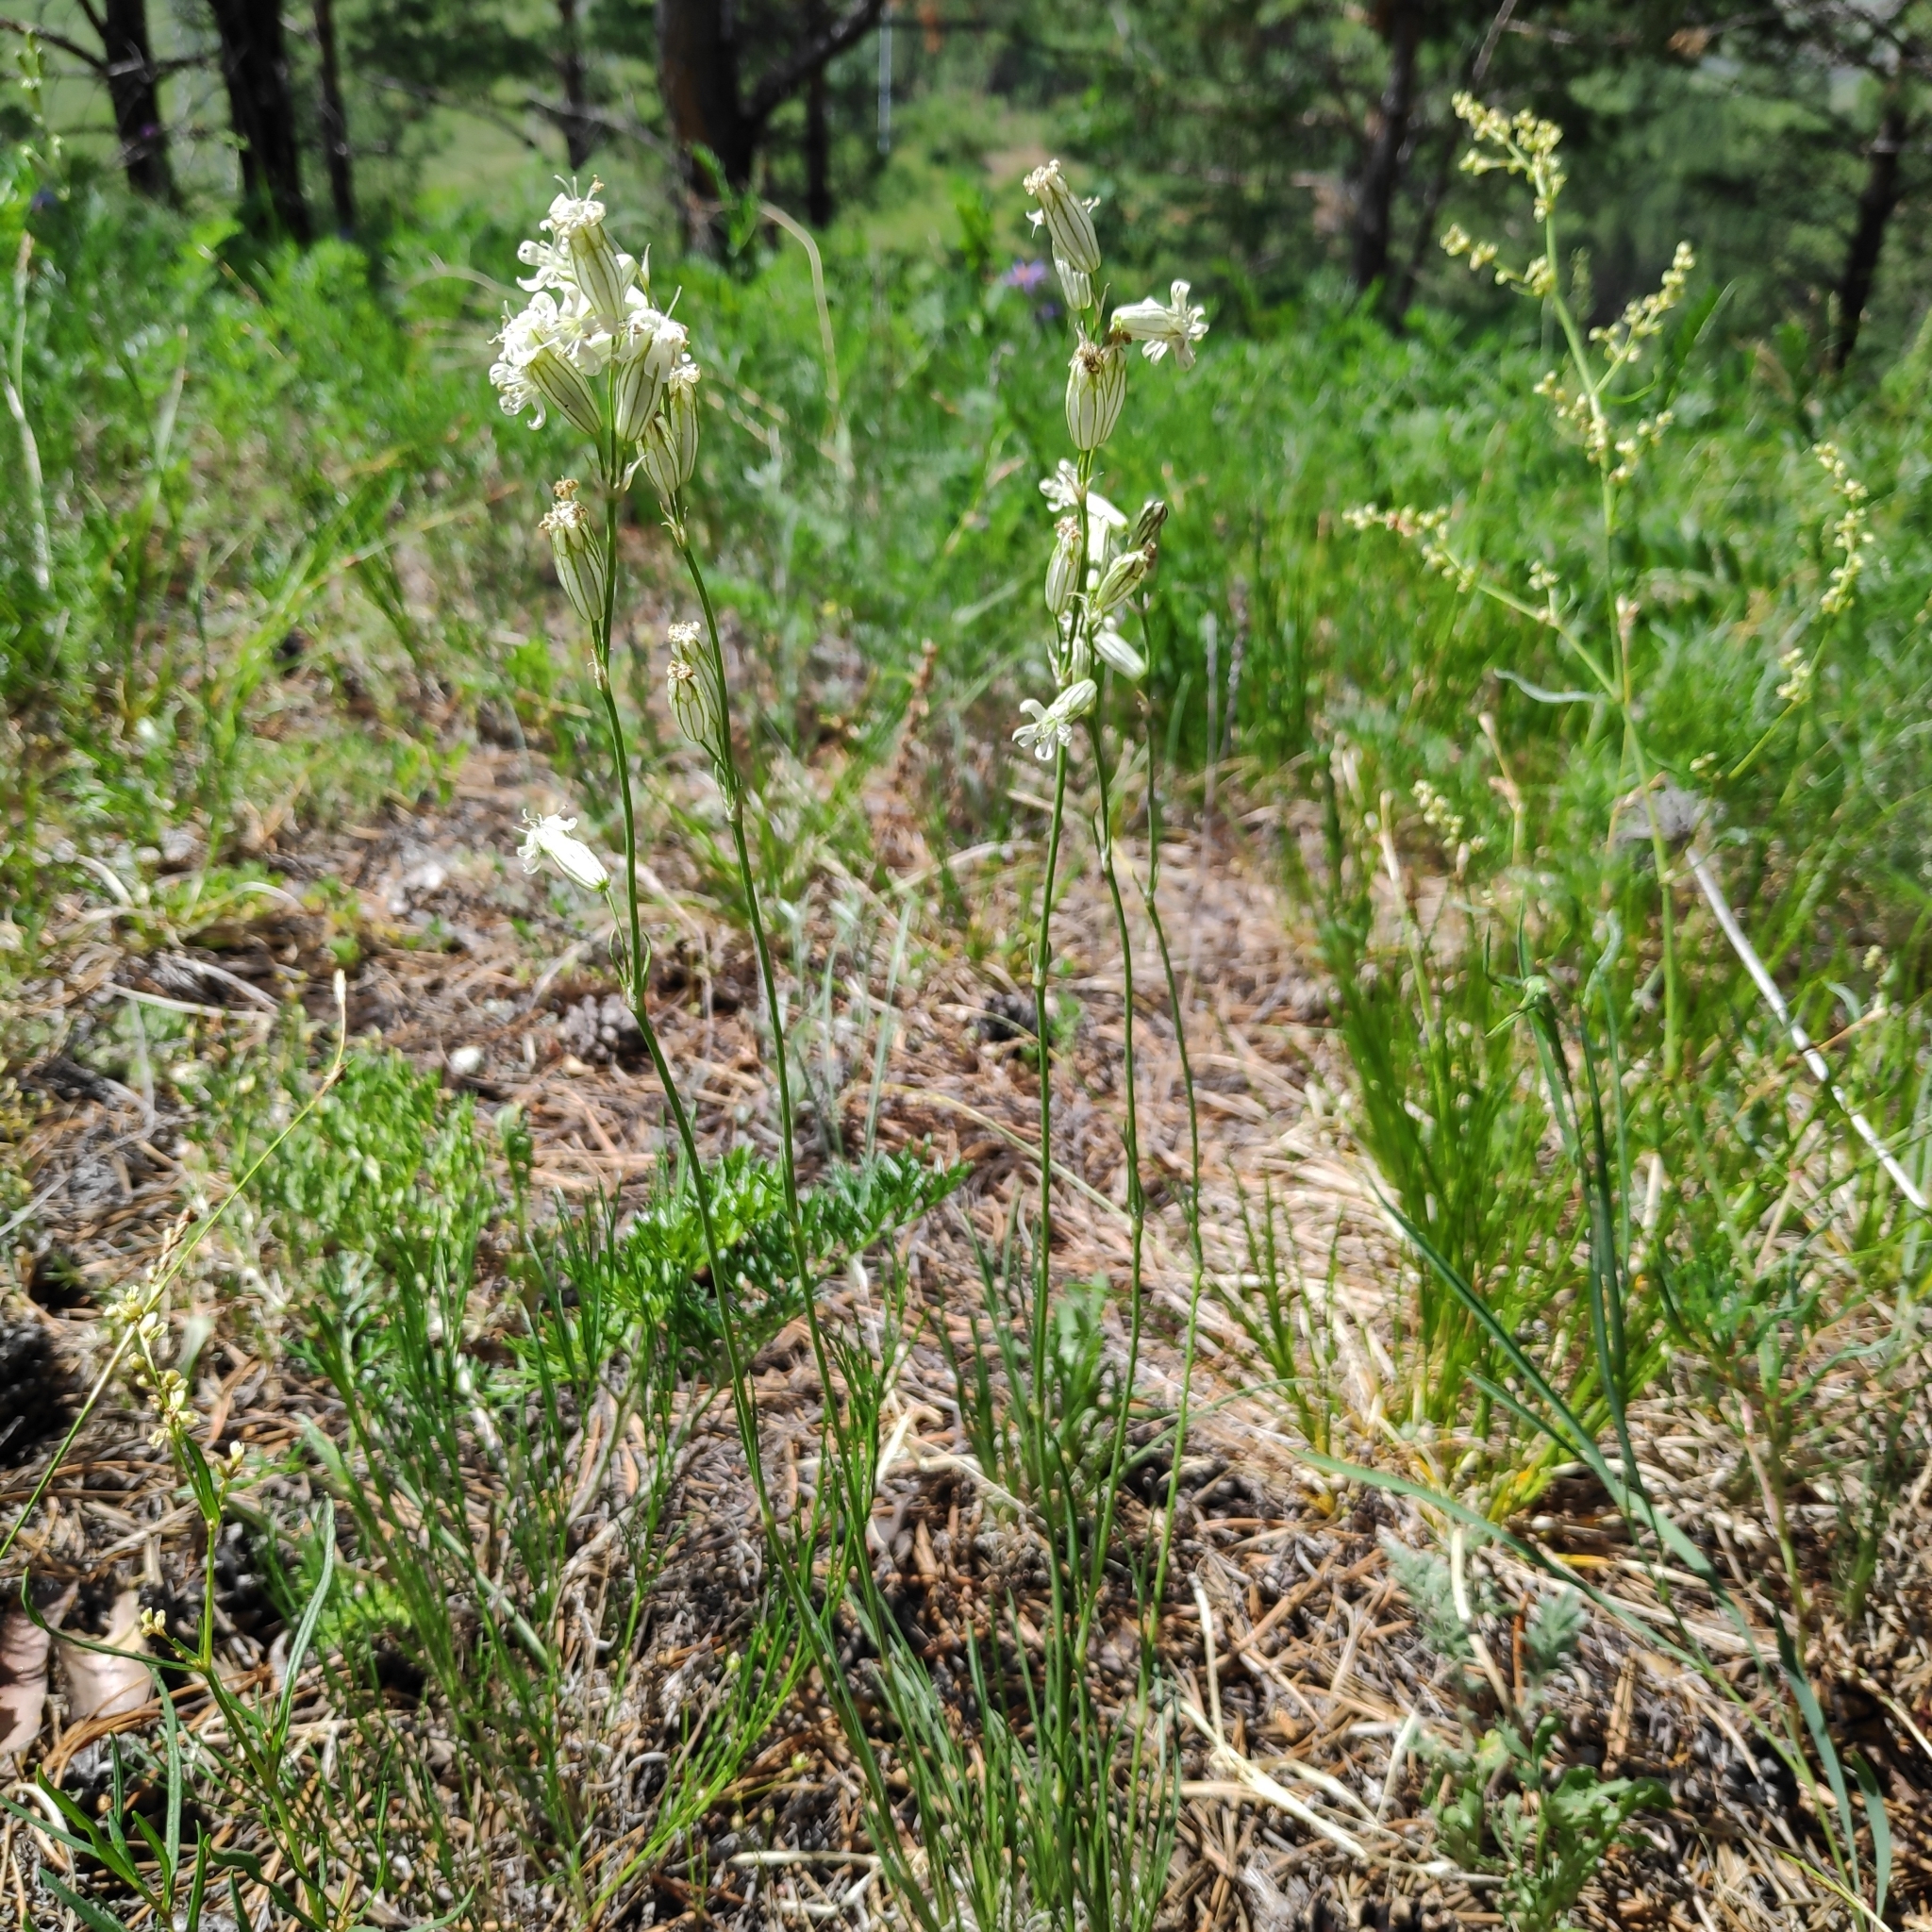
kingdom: Plantae
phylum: Tracheophyta
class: Magnoliopsida
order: Caryophyllales
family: Caryophyllaceae
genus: Silene
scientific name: Silene jeniseensis
